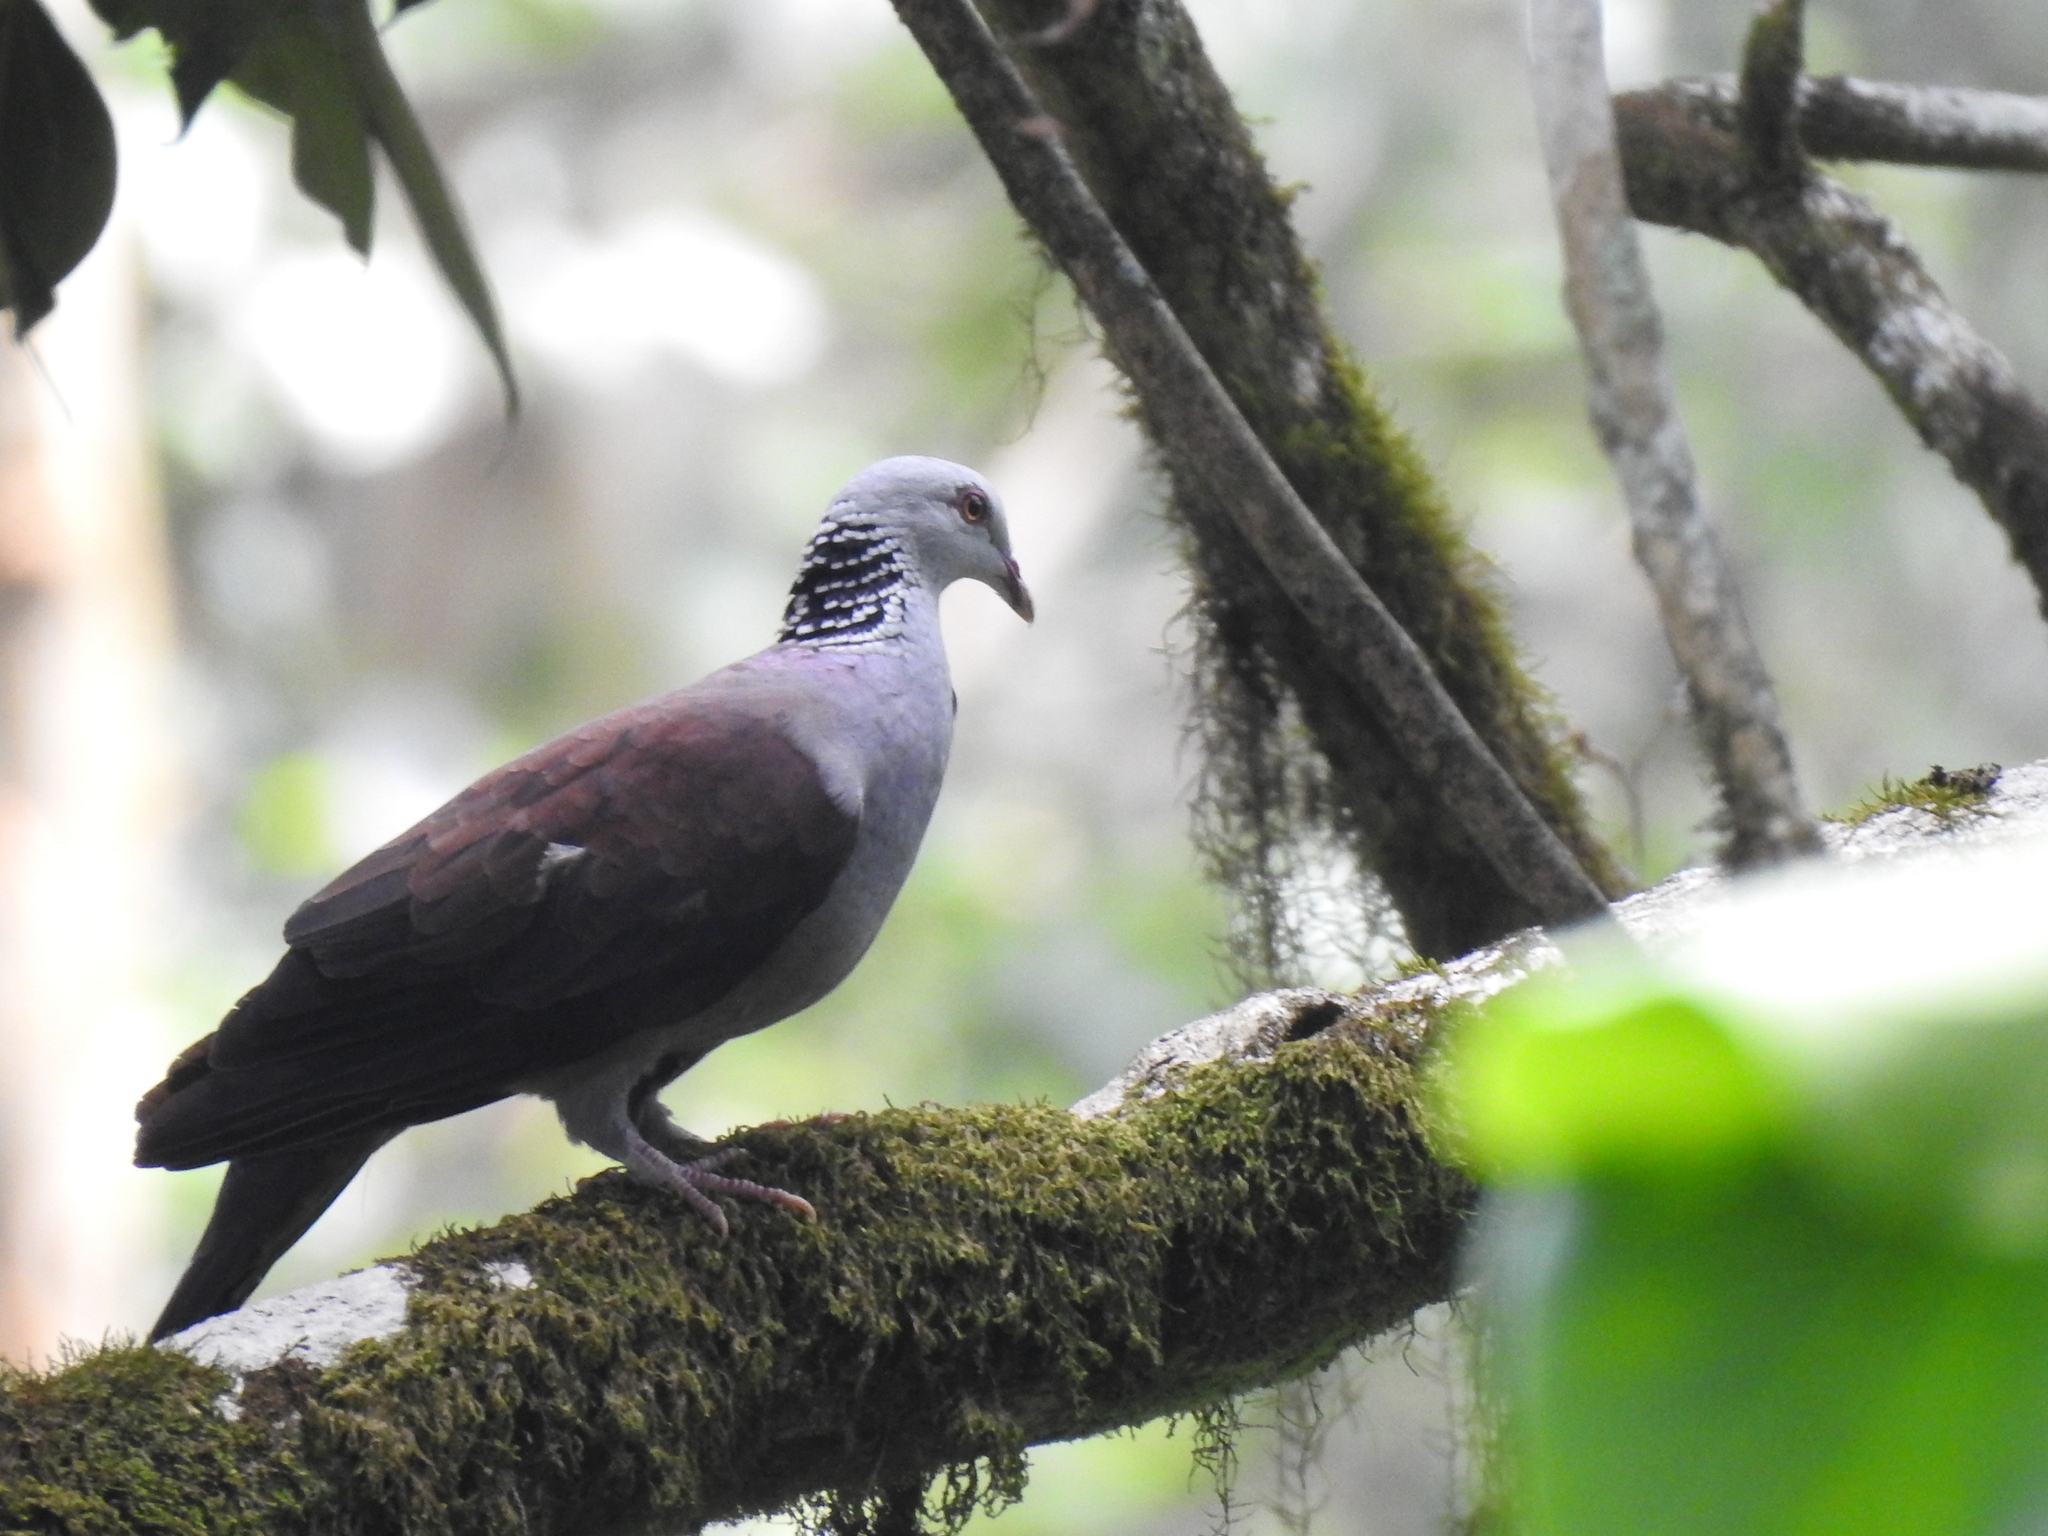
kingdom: Animalia
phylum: Chordata
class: Aves
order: Columbiformes
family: Columbidae
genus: Columba
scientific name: Columba elphinstonii
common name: Nilgiri wood pigeon
